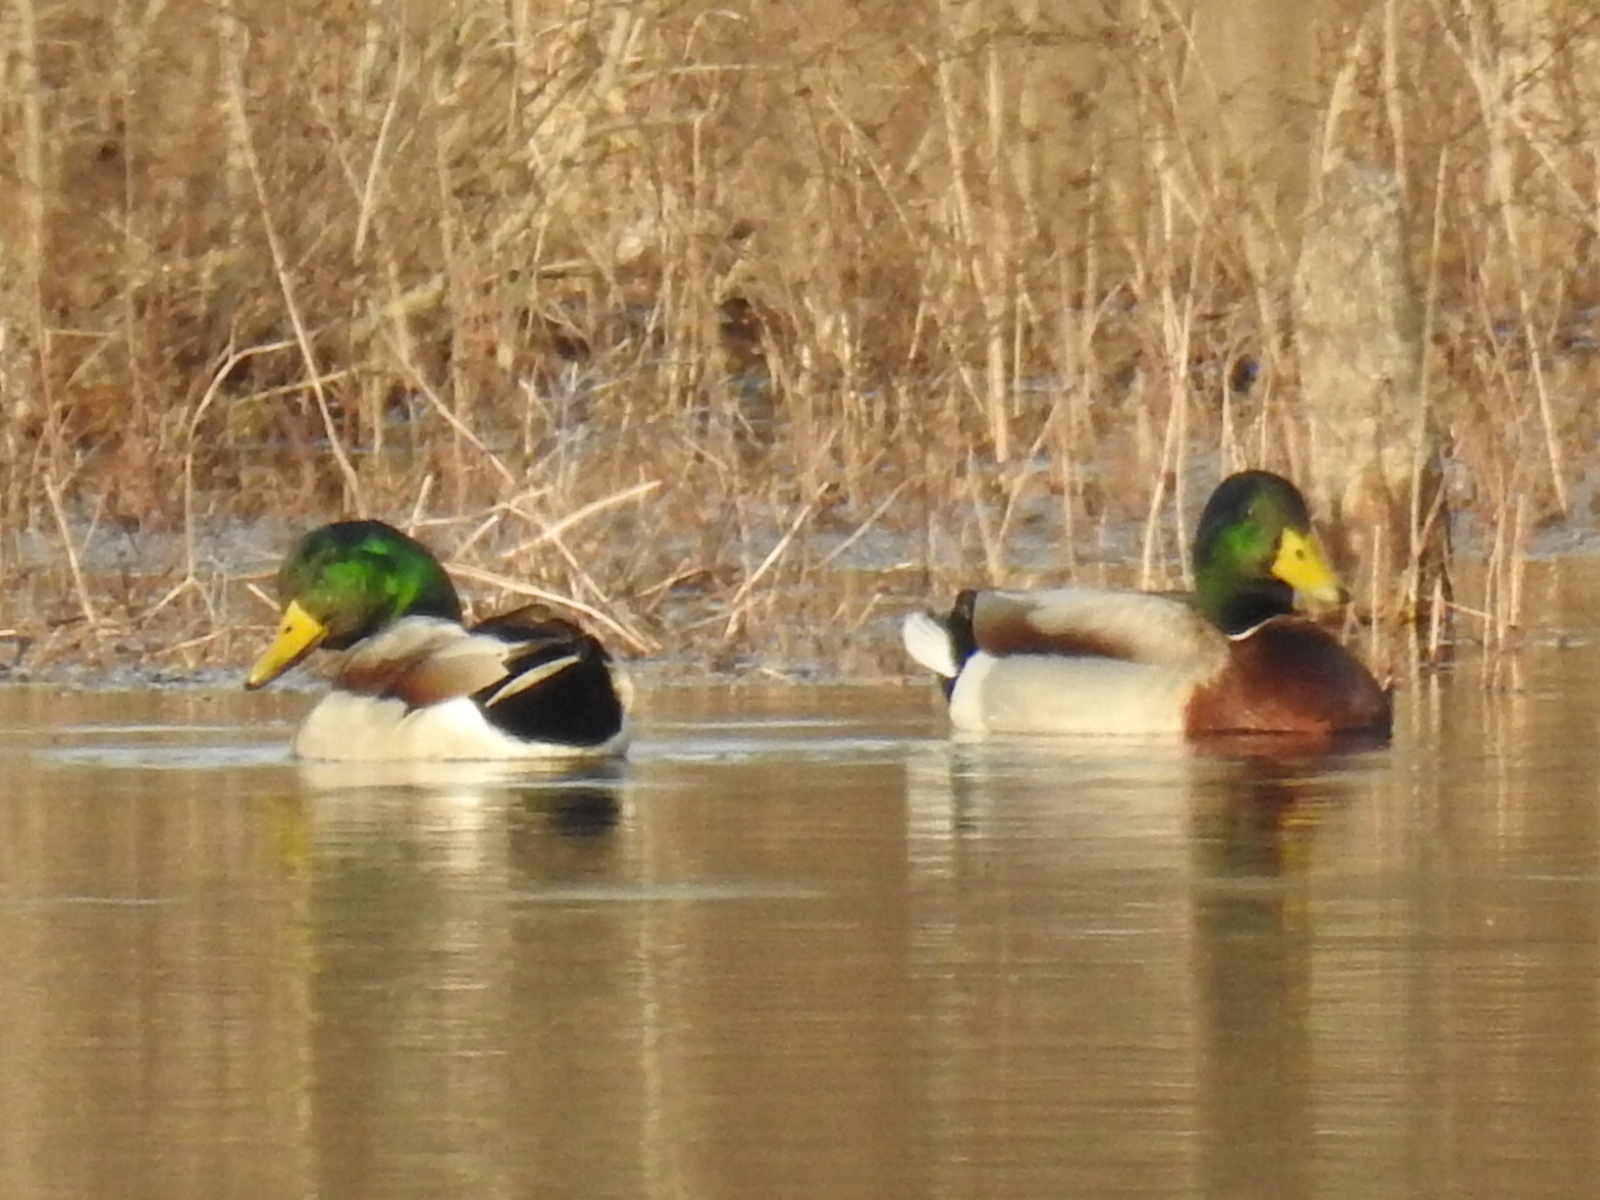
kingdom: Animalia
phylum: Chordata
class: Aves
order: Anseriformes
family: Anatidae
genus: Anas
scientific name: Anas platyrhynchos
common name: Mallard
